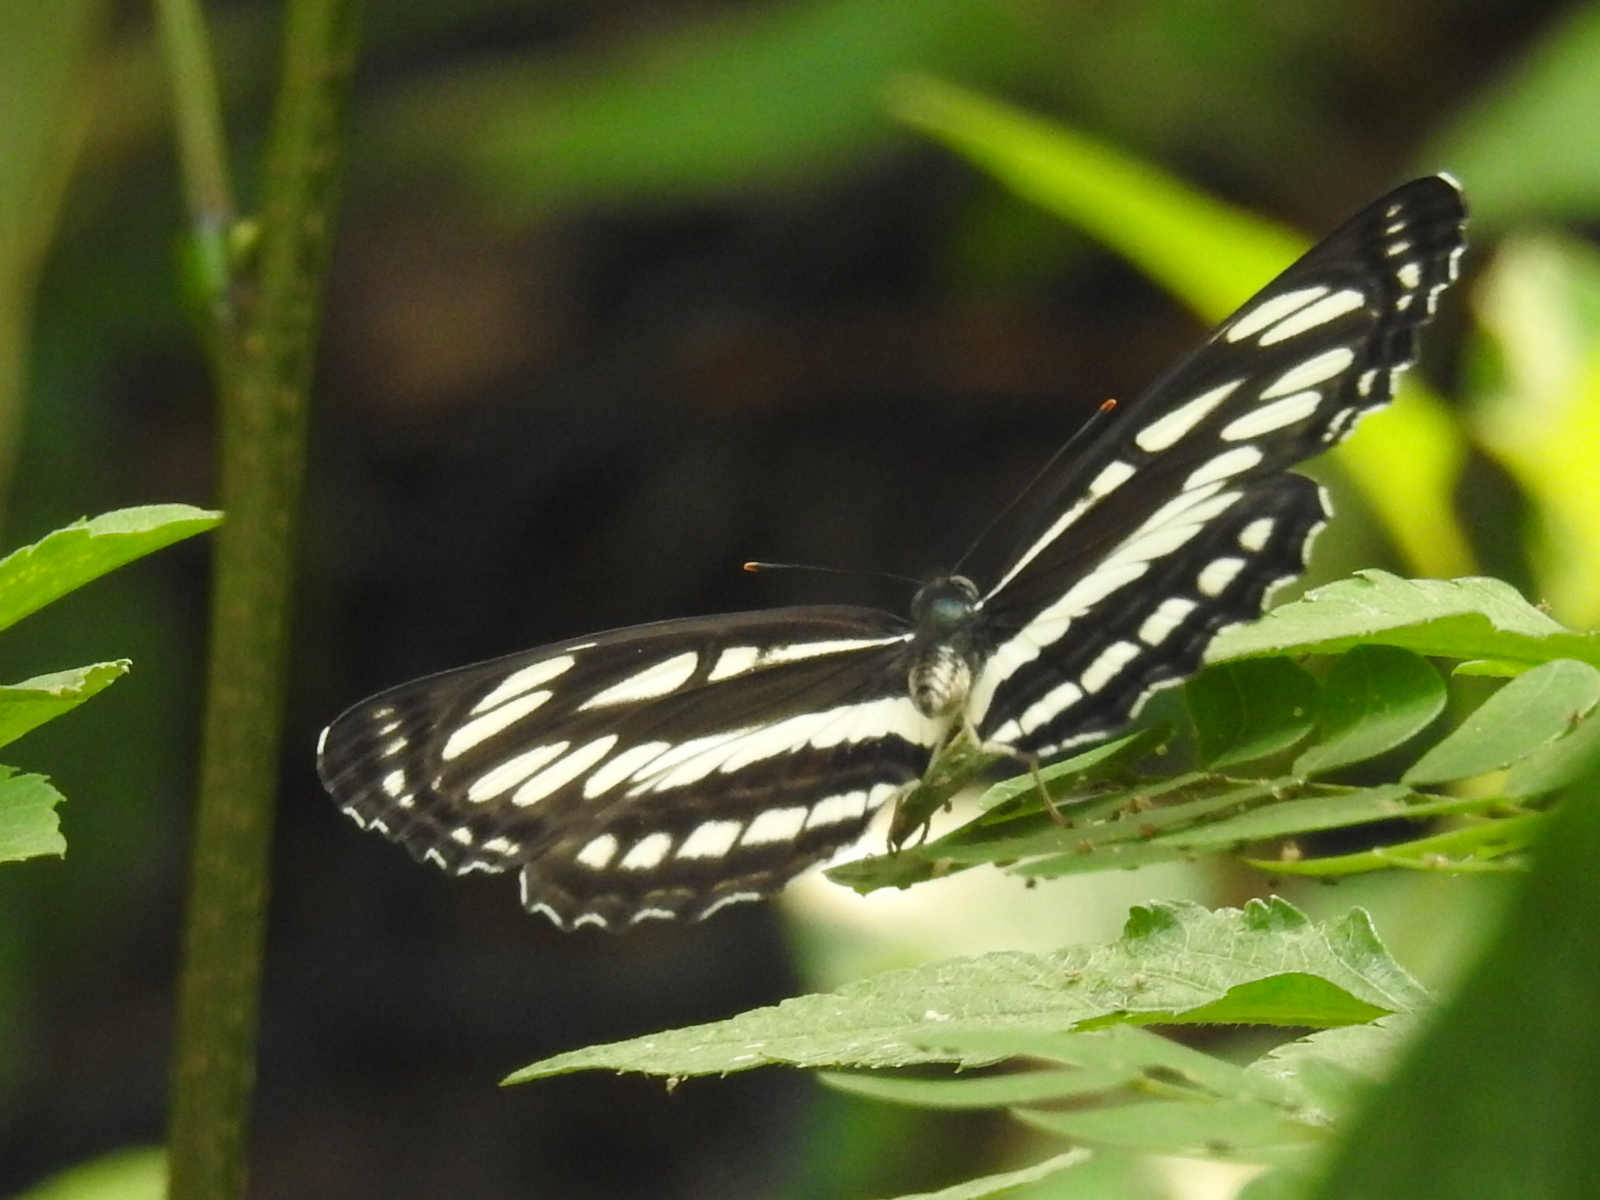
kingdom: Animalia
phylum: Arthropoda
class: Insecta
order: Lepidoptera
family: Nymphalidae
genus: Neptis
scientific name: Neptis hylas
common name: Common sailer
